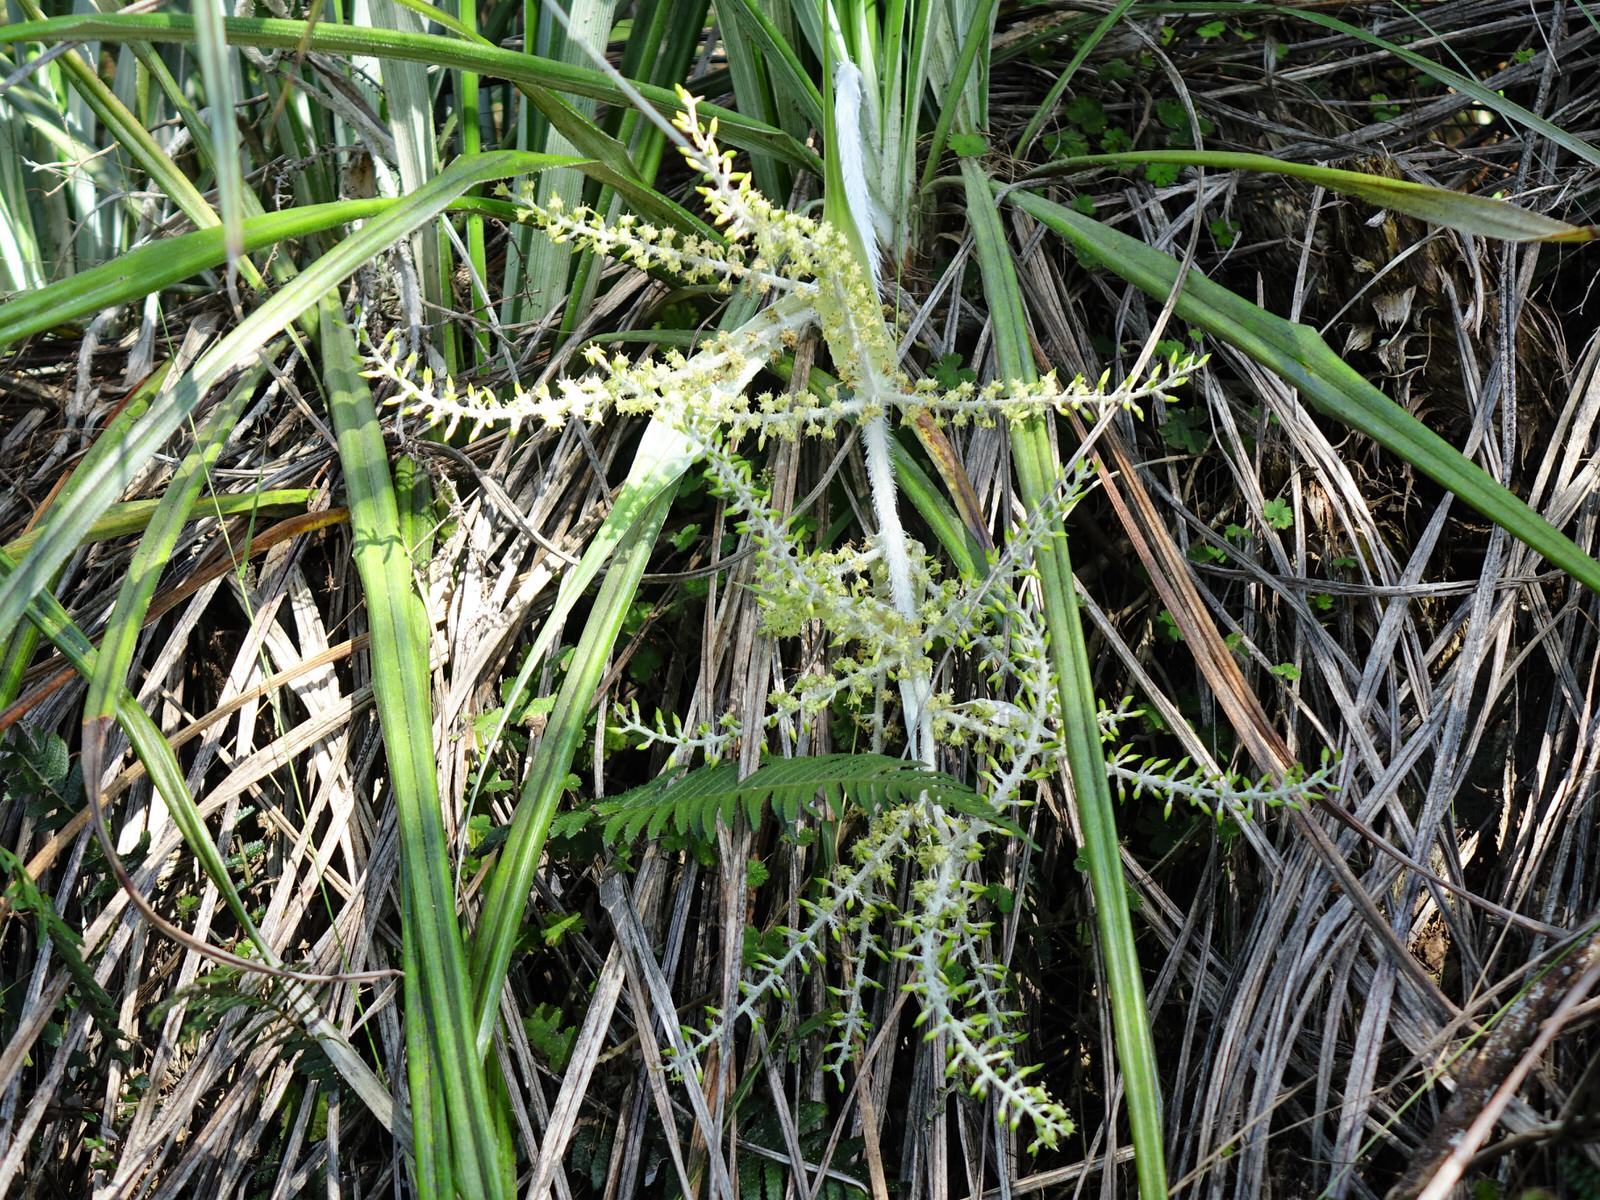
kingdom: Plantae
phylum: Tracheophyta
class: Liliopsida
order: Asparagales
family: Asteliaceae
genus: Astelia
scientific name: Astelia banksii
